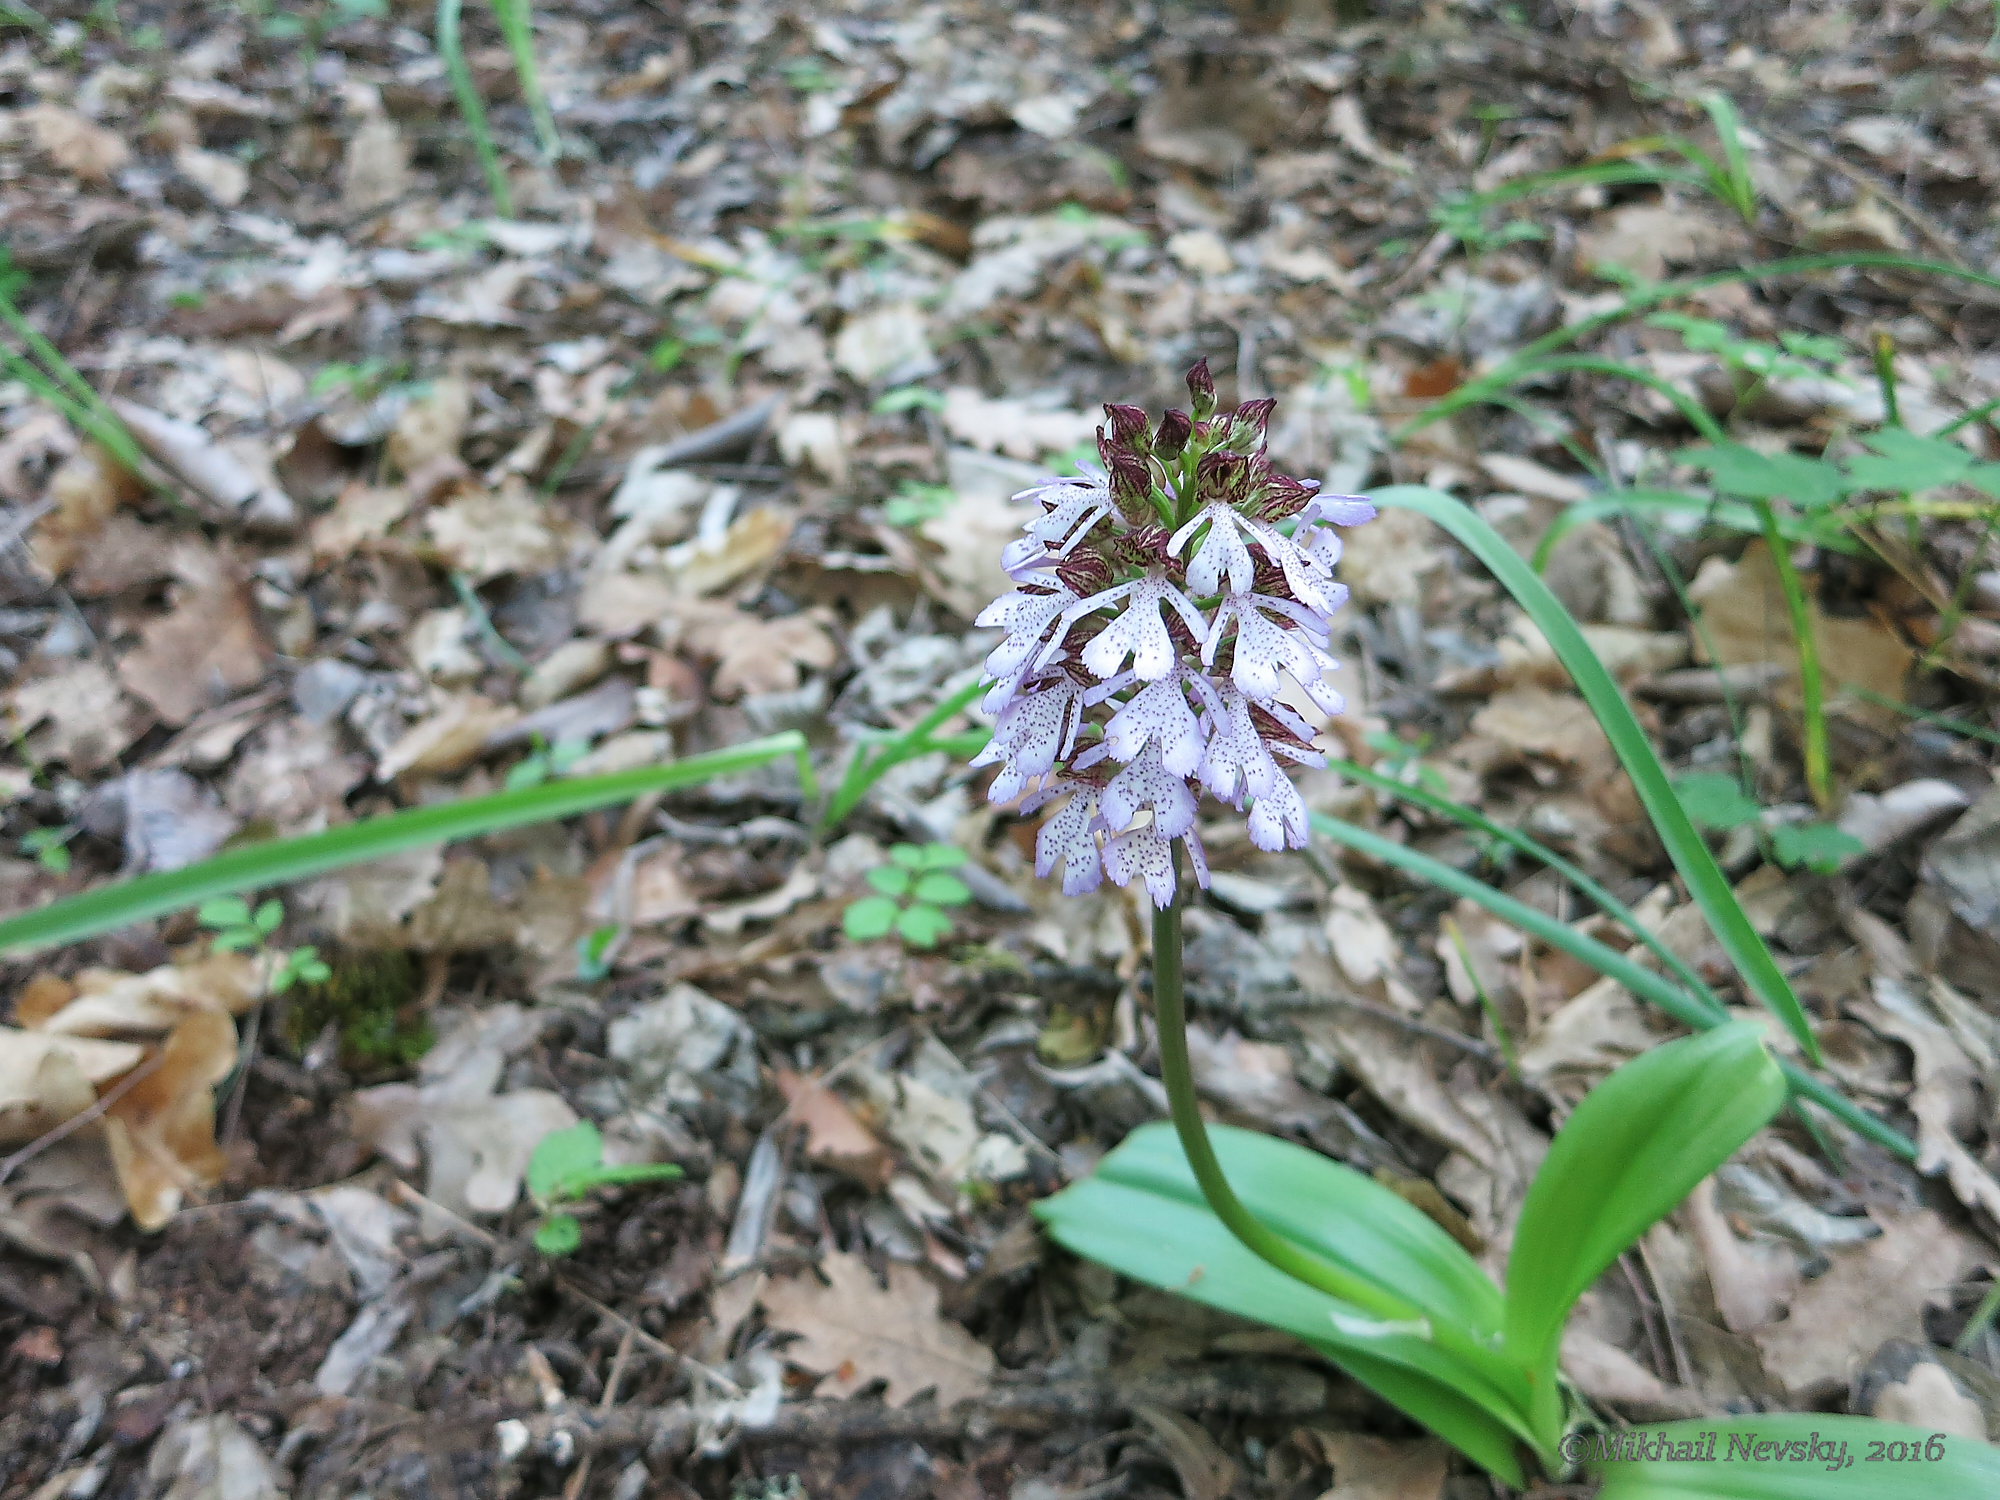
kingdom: Plantae
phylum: Tracheophyta
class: Liliopsida
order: Asparagales
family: Orchidaceae
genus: Orchis
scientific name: Orchis purpurea
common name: Lady orchid
